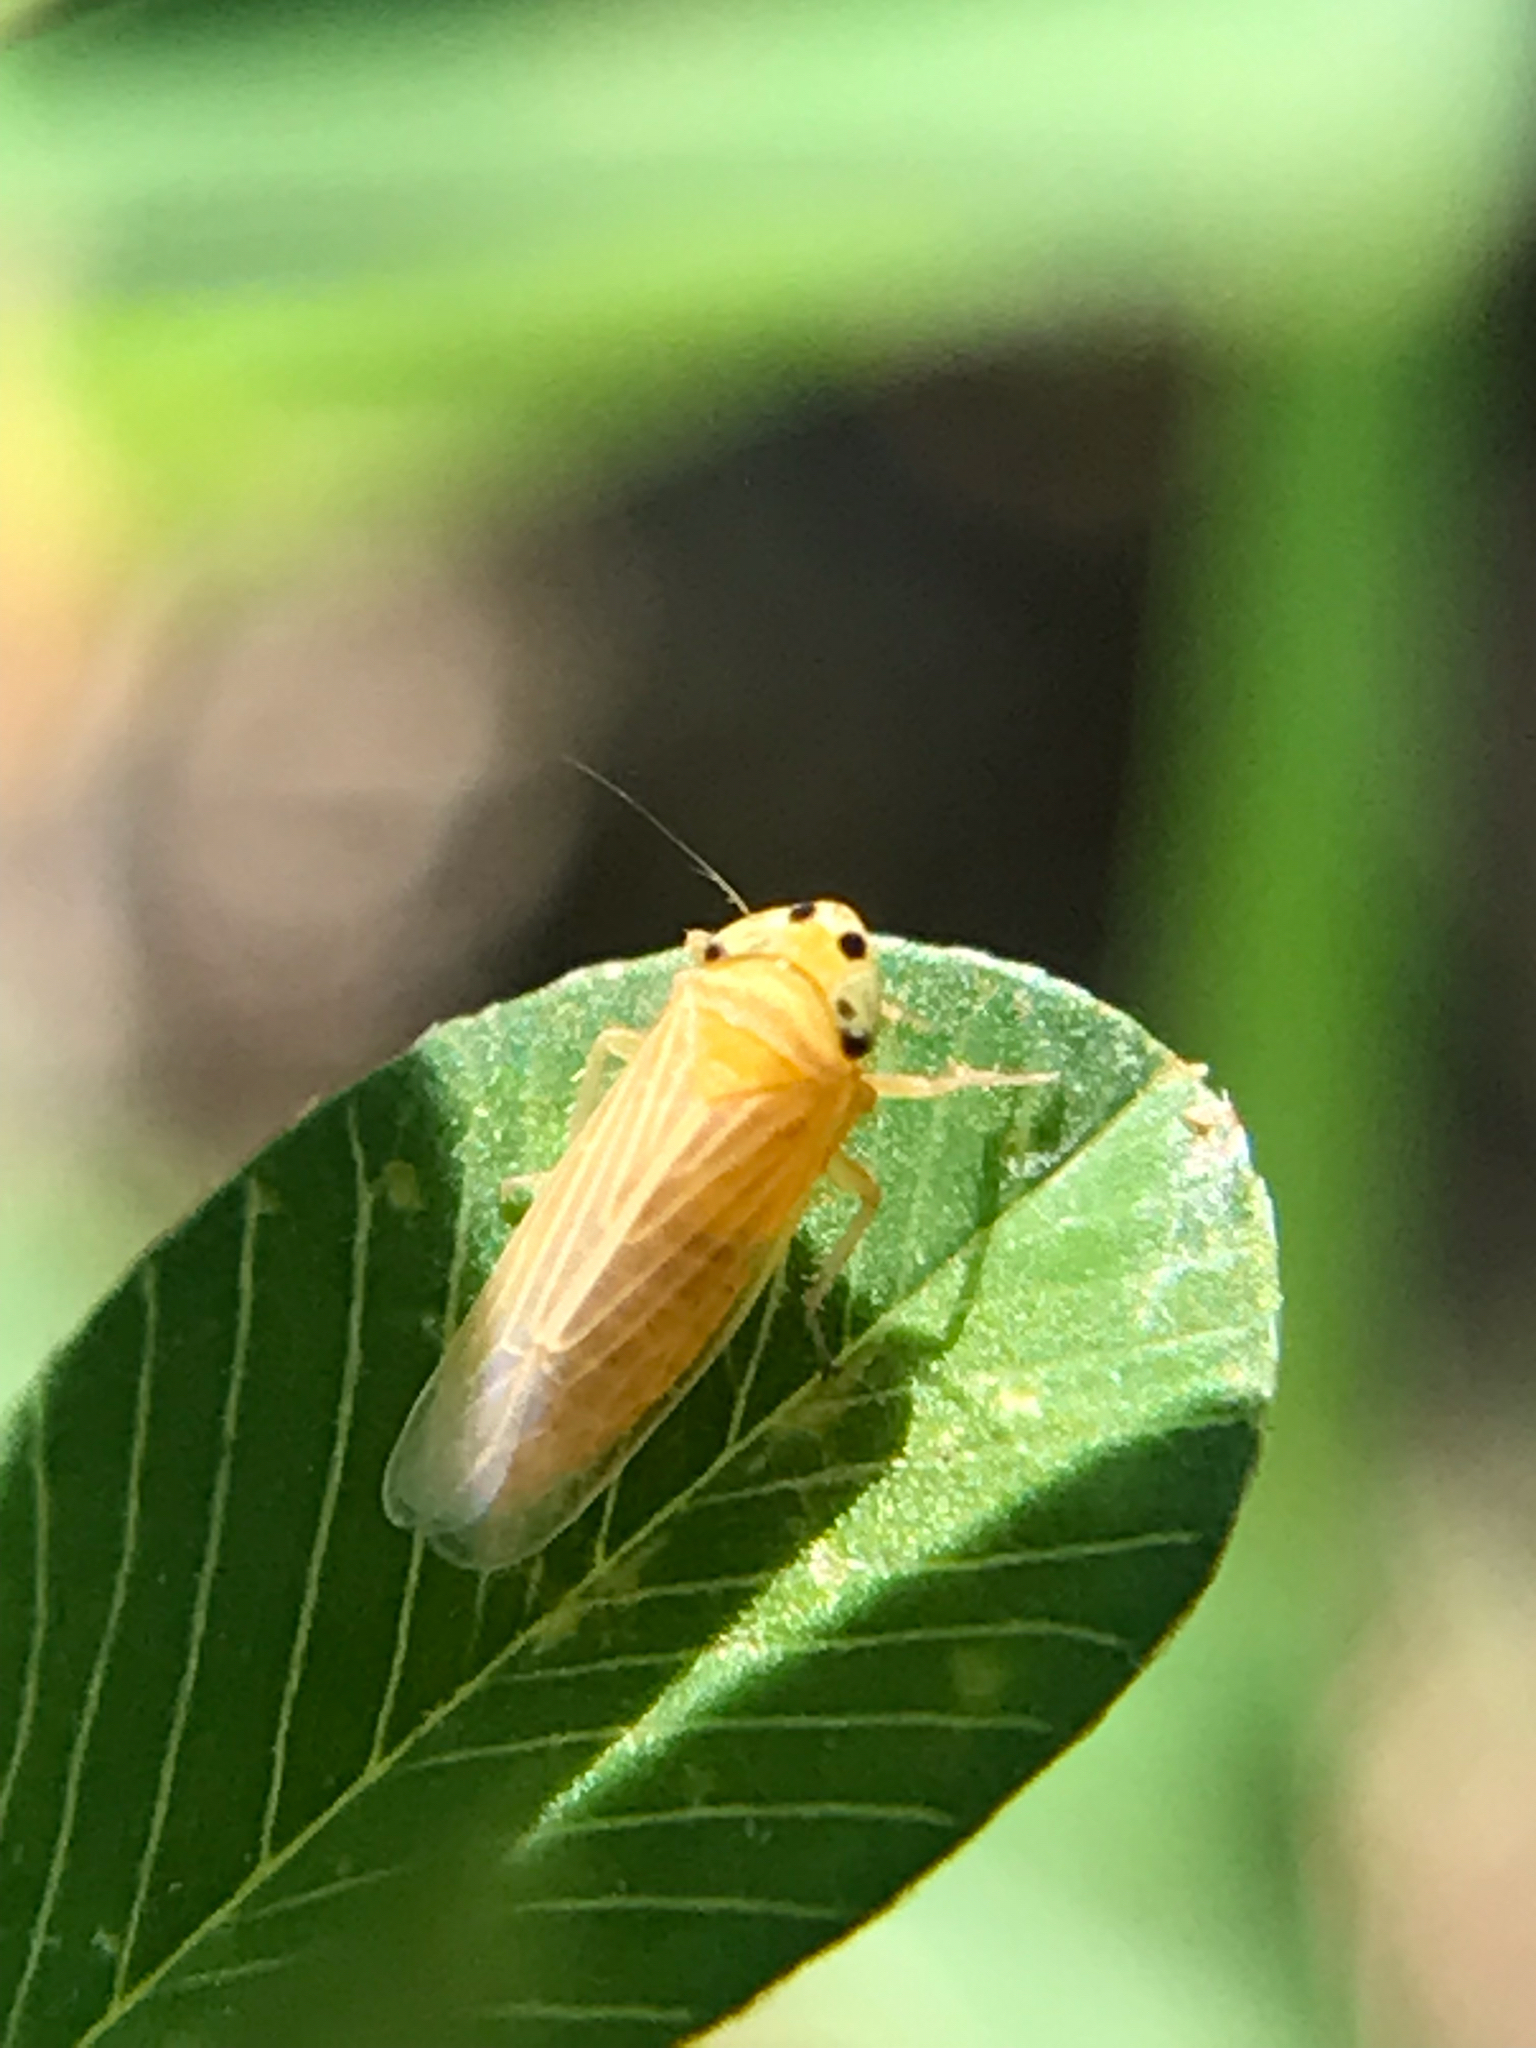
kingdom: Animalia
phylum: Arthropoda
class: Insecta
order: Hemiptera
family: Cicadellidae
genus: Graminella
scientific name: Graminella villicus
